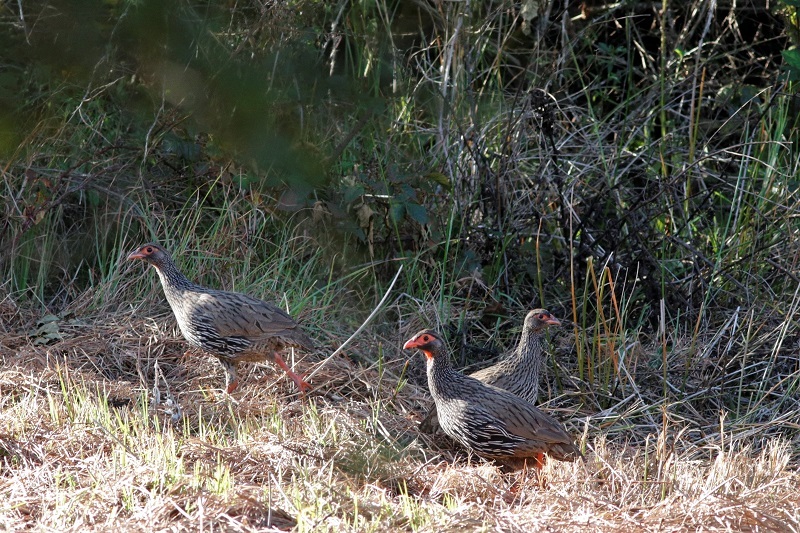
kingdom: Animalia
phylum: Chordata
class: Aves
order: Galliformes
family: Phasianidae
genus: Pternistis
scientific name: Pternistis afer
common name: Red-necked spurfowl
